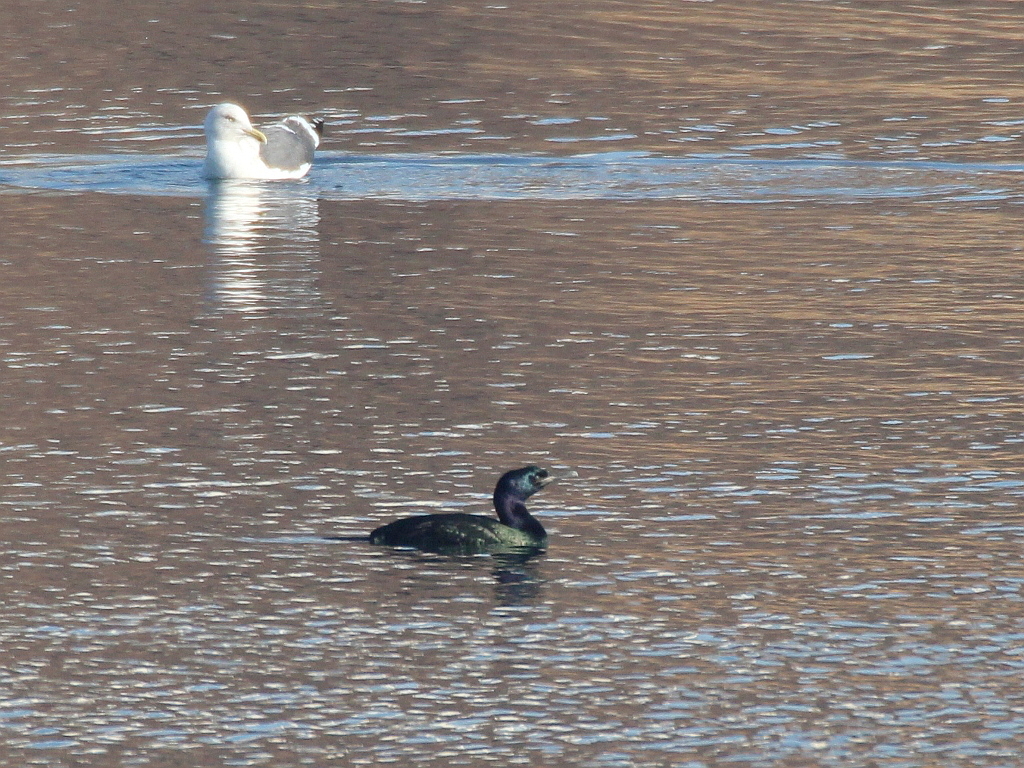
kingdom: Animalia
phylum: Chordata
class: Aves
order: Suliformes
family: Phalacrocoracidae
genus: Phalacrocorax
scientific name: Phalacrocorax pelagicus
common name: Pelagic cormorant
